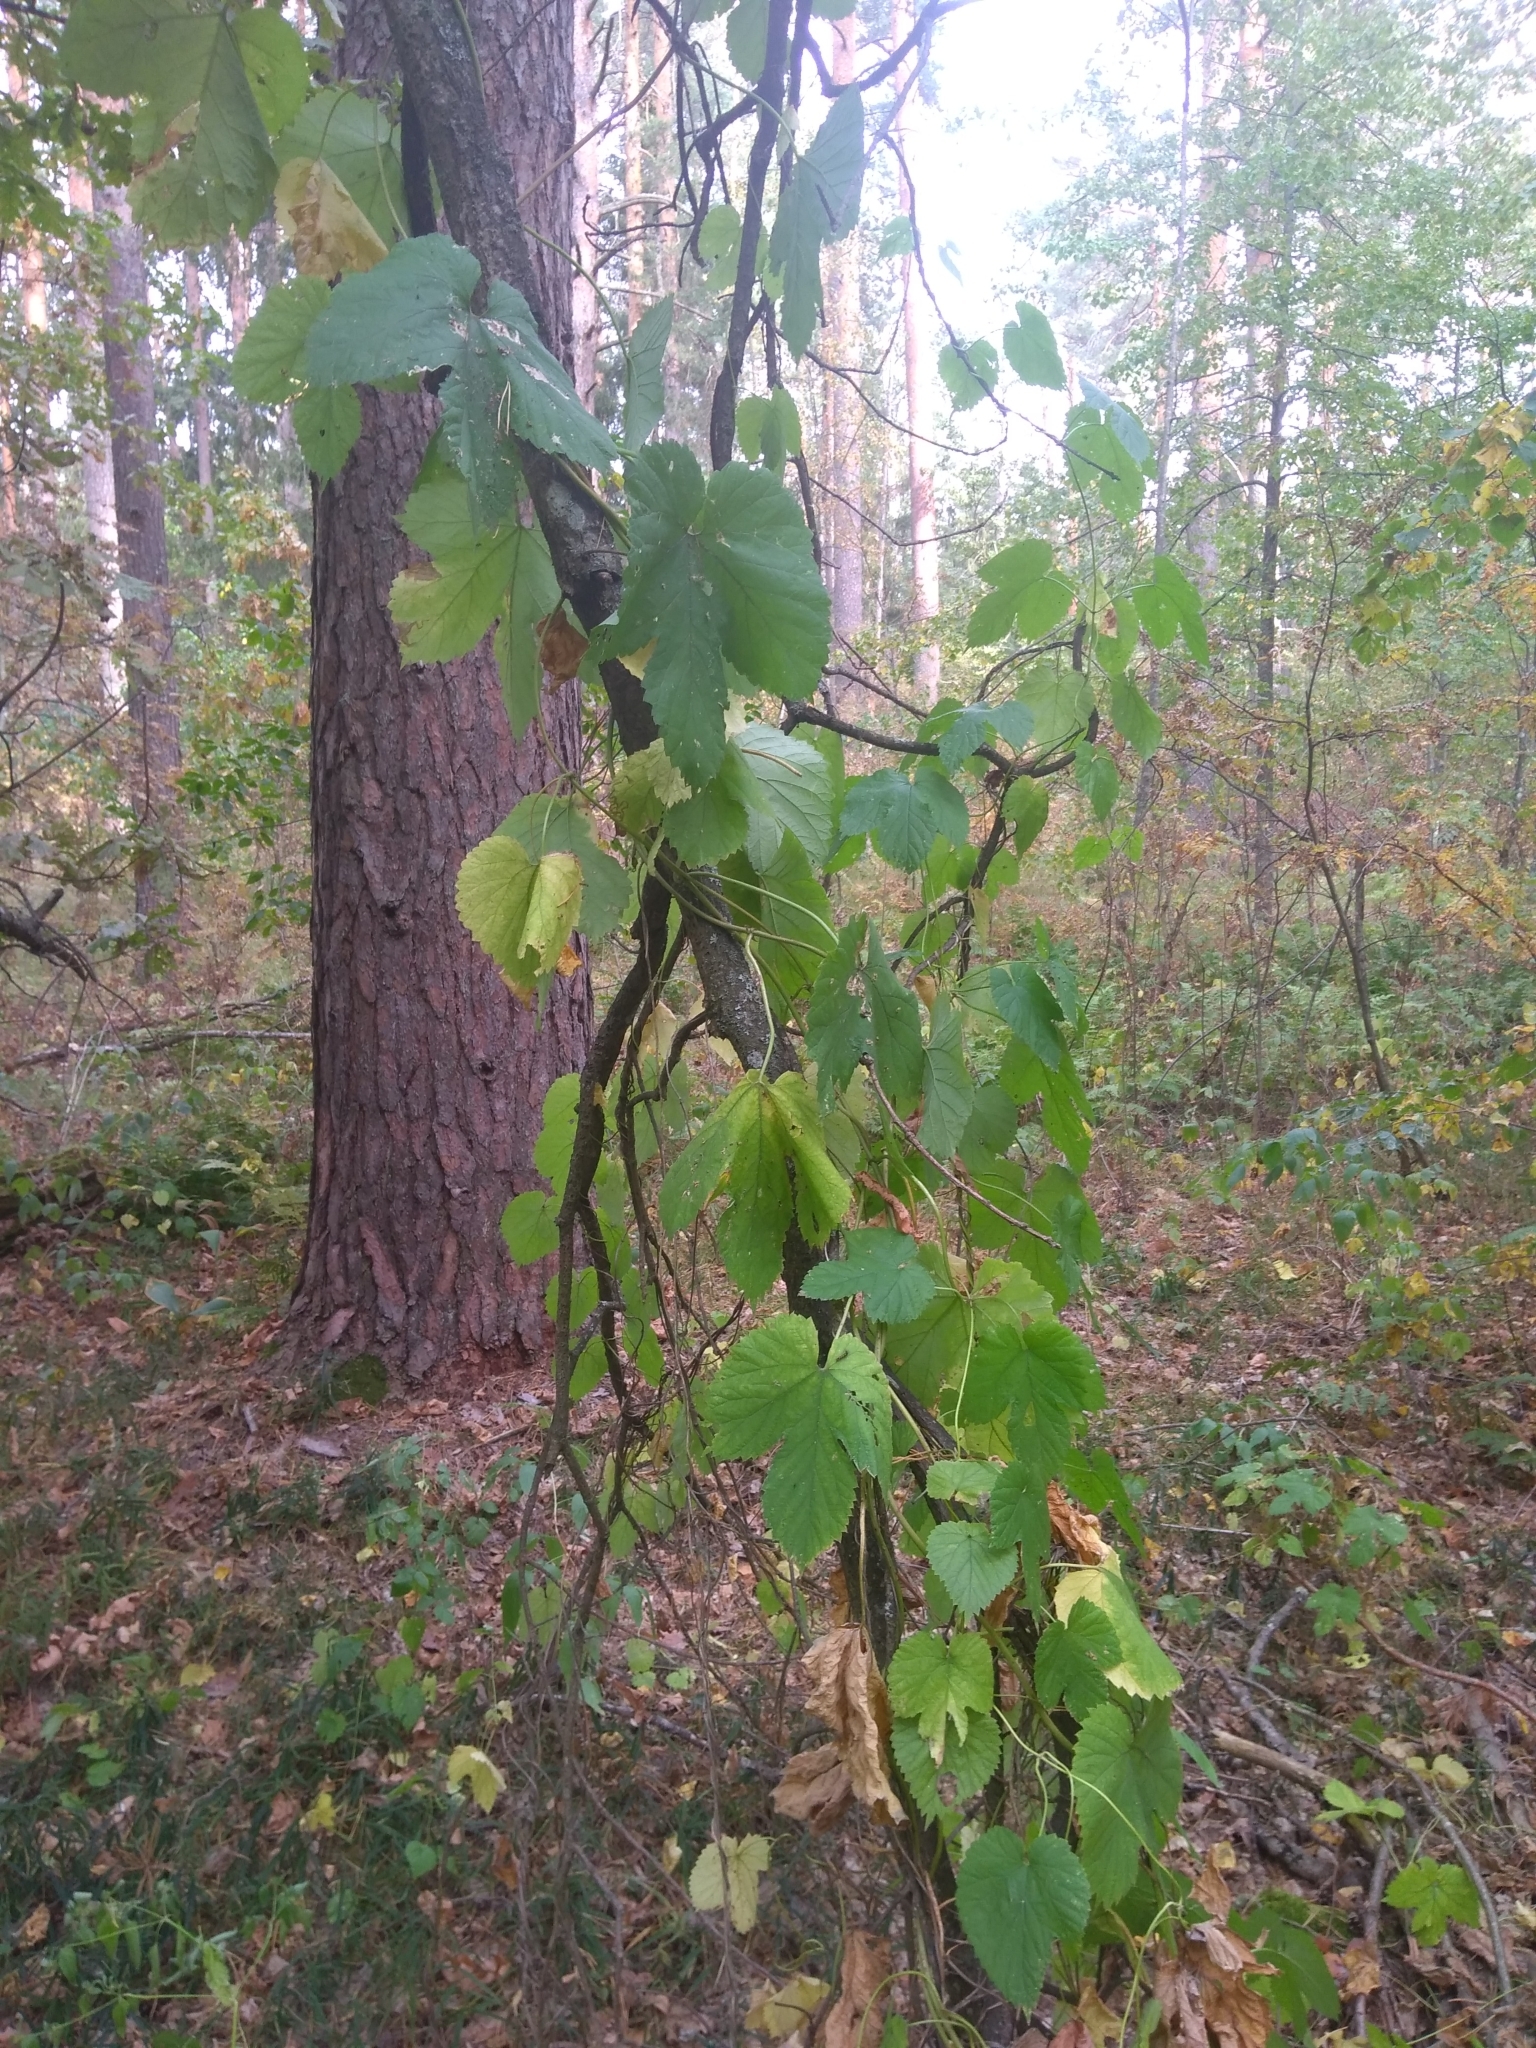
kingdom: Plantae
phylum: Tracheophyta
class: Magnoliopsida
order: Rosales
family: Cannabaceae
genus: Humulus
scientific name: Humulus lupulus
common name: Hop
